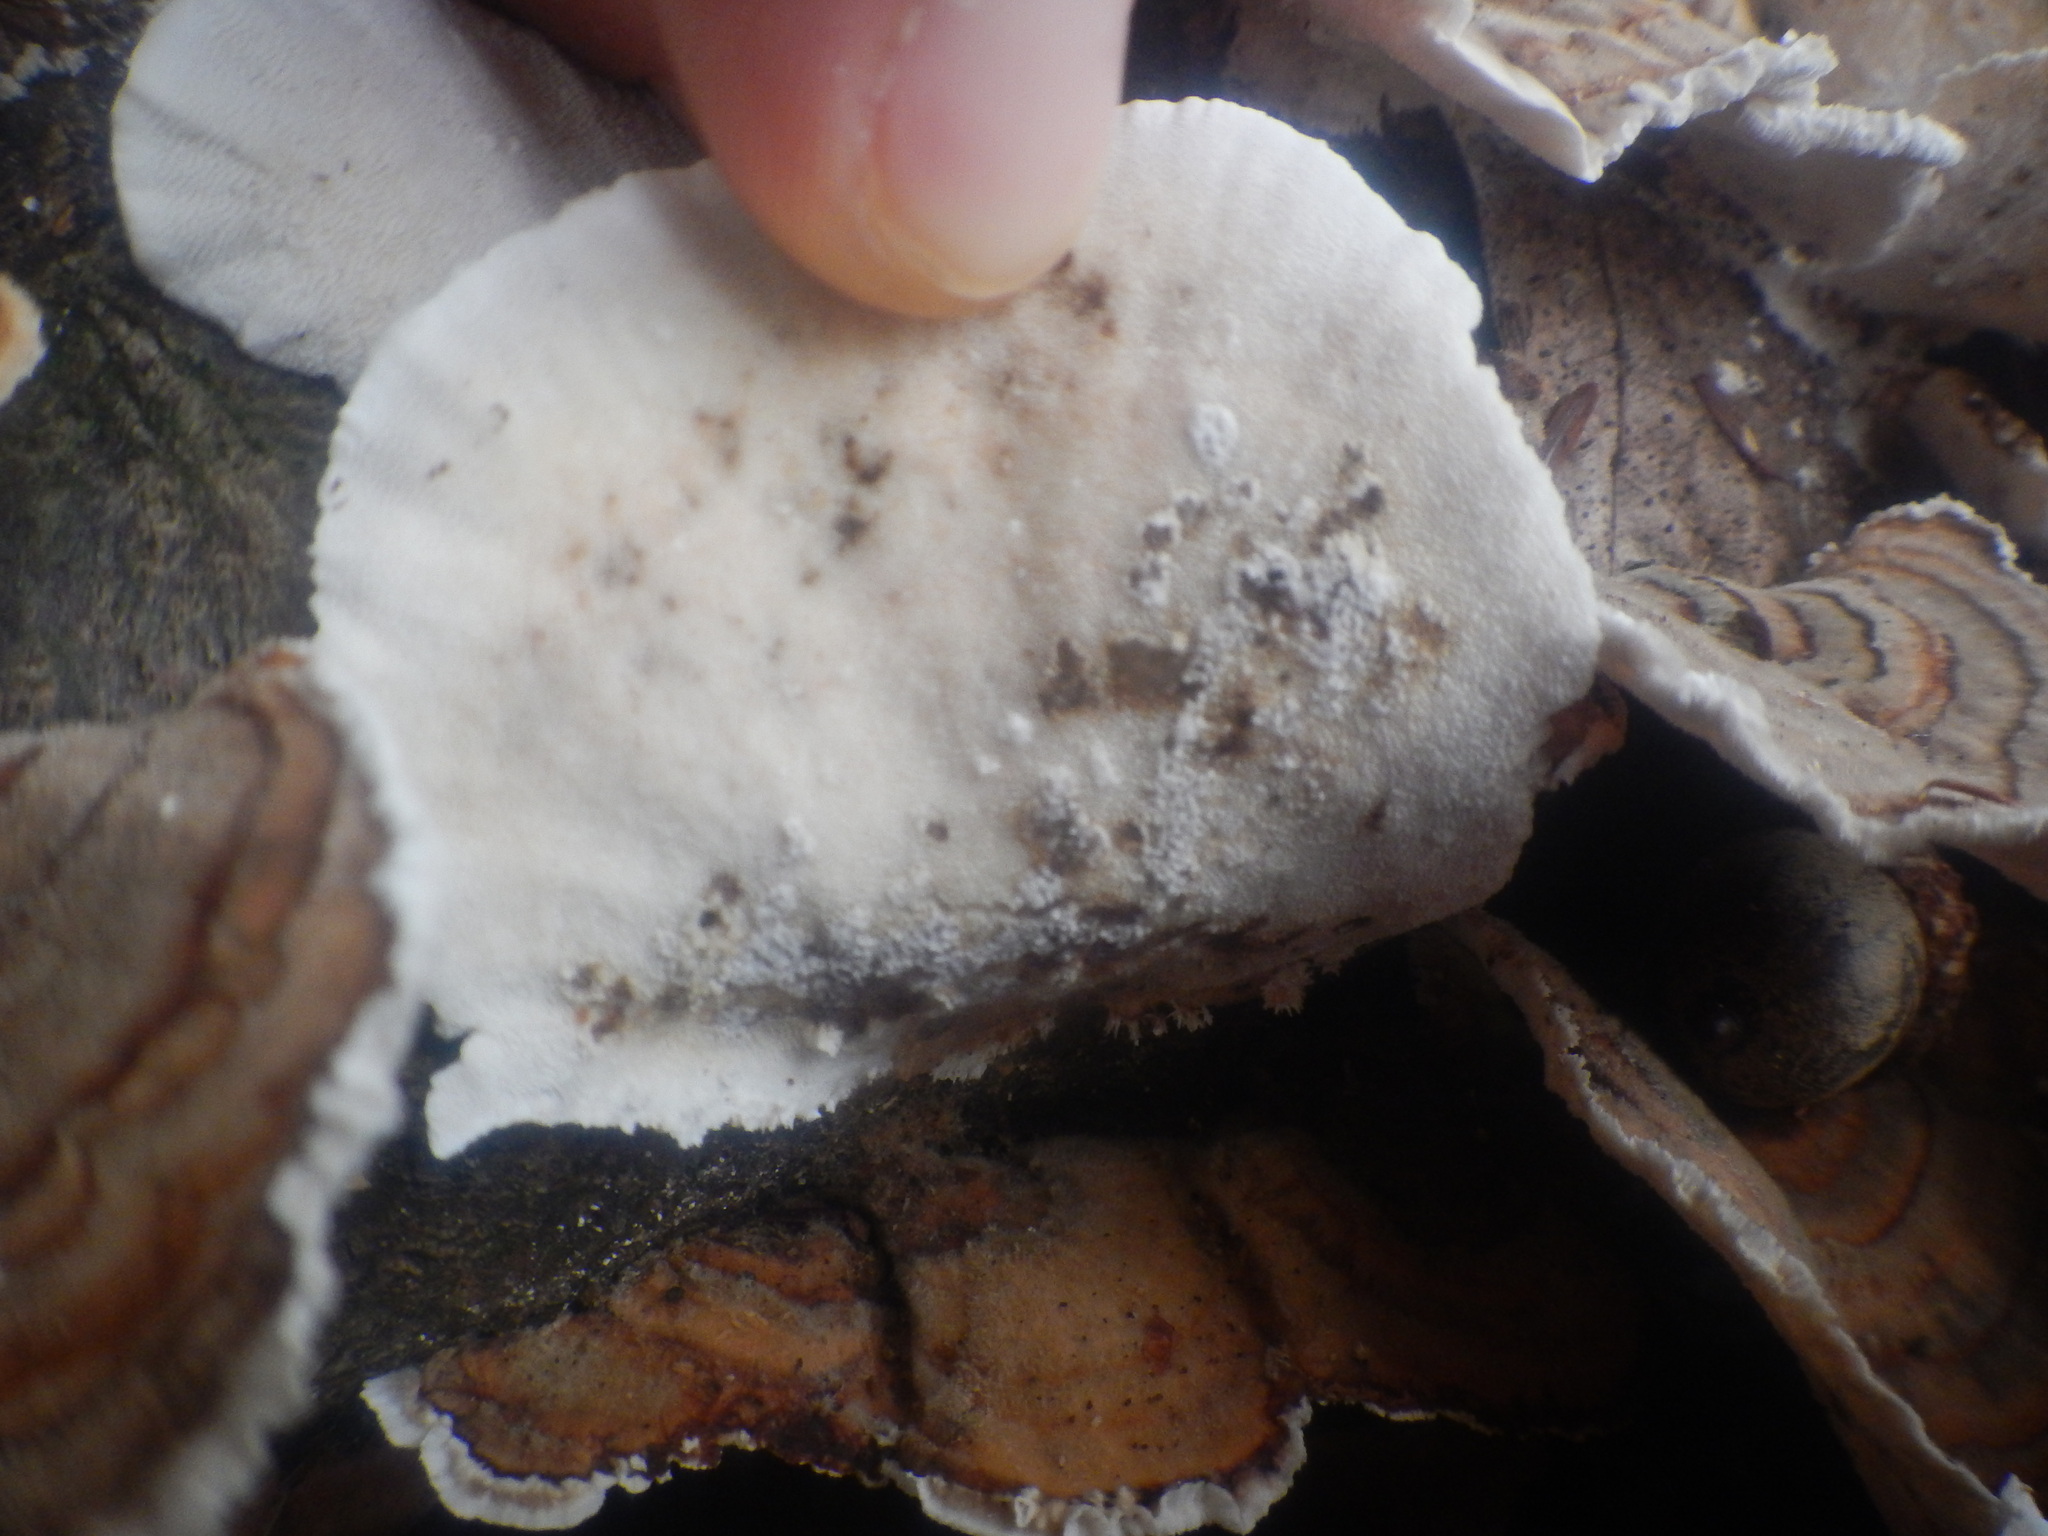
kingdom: Fungi
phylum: Basidiomycota
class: Agaricomycetes
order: Polyporales
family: Polyporaceae
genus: Trametes
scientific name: Trametes versicolor
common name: Turkeytail
